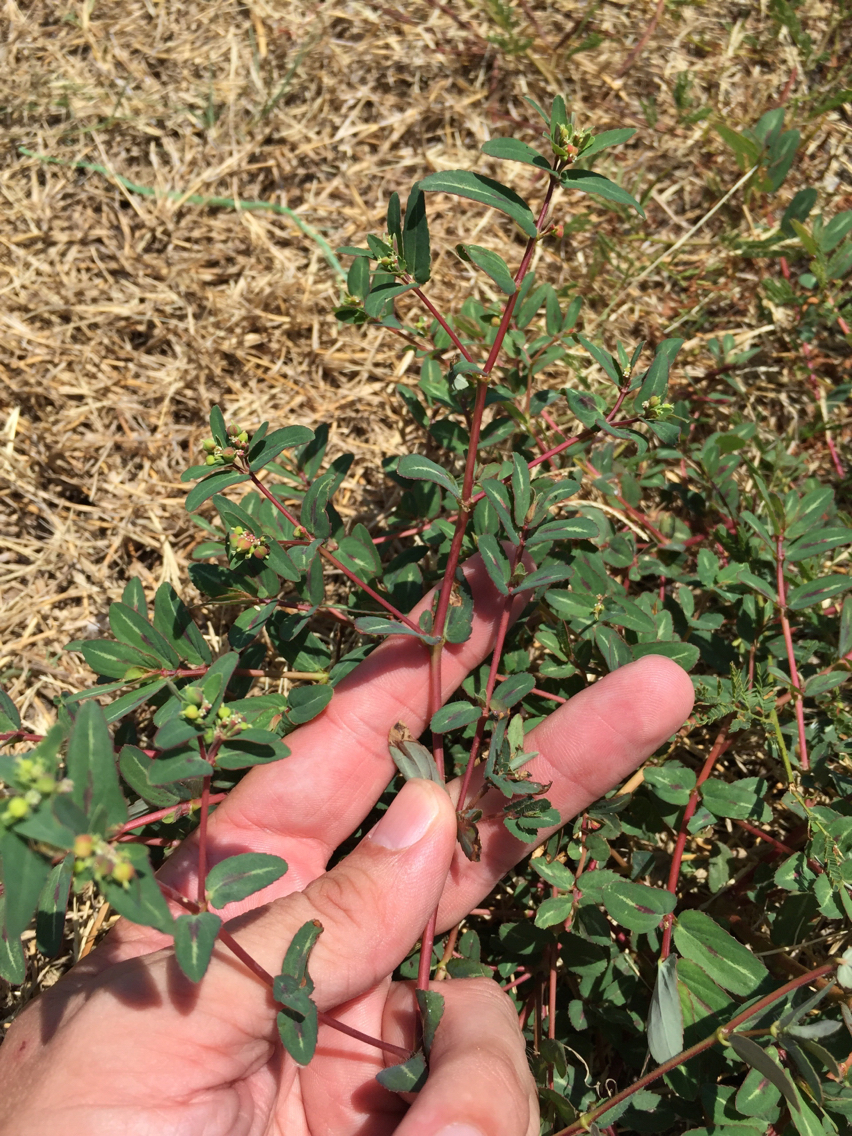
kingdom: Plantae
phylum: Tracheophyta
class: Magnoliopsida
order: Malpighiales
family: Euphorbiaceae
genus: Euphorbia
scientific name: Euphorbia nutans
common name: Eyebane
